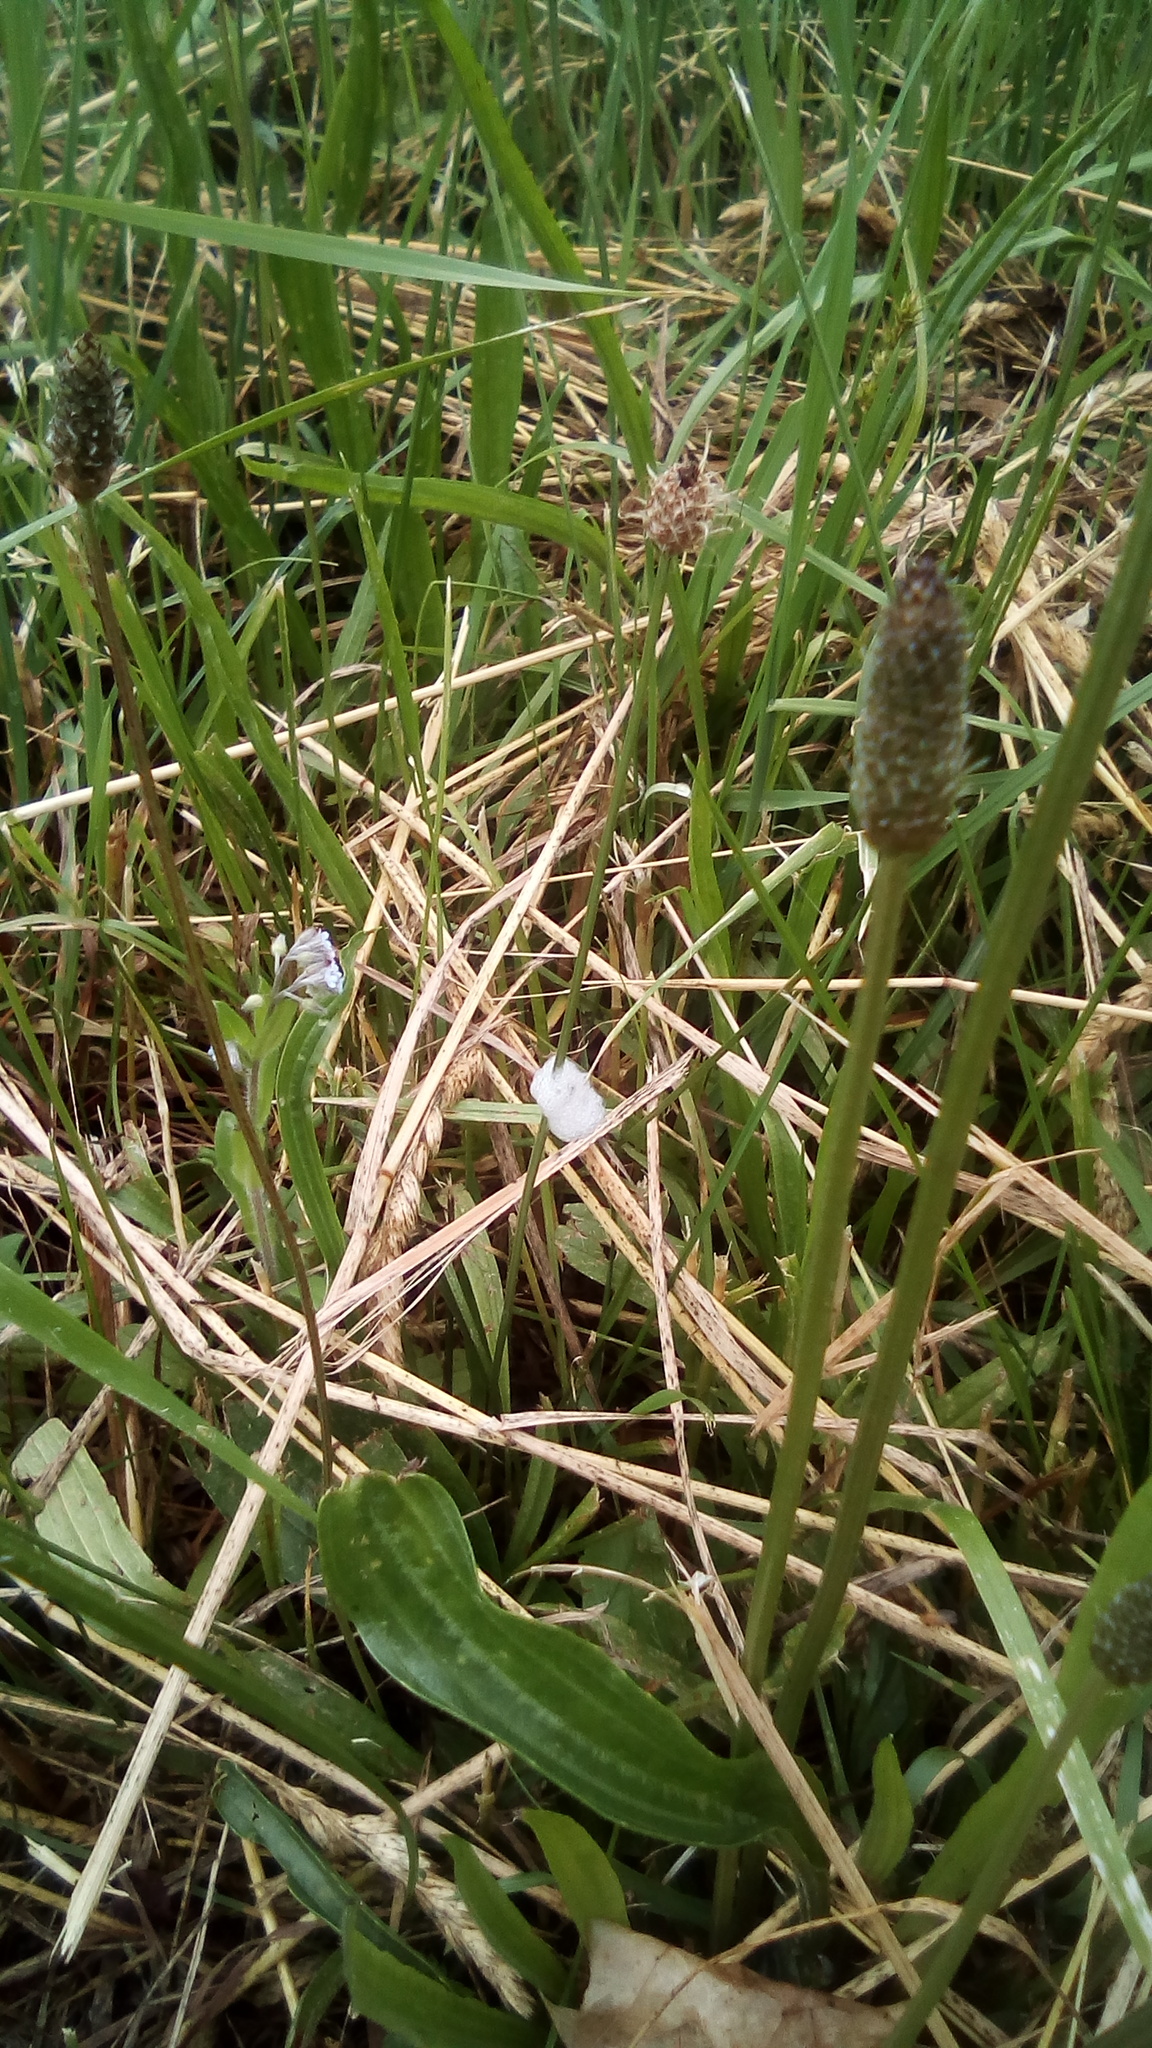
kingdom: Plantae
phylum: Tracheophyta
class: Magnoliopsida
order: Lamiales
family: Plantaginaceae
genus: Plantago
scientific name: Plantago lanceolata
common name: Ribwort plantain
